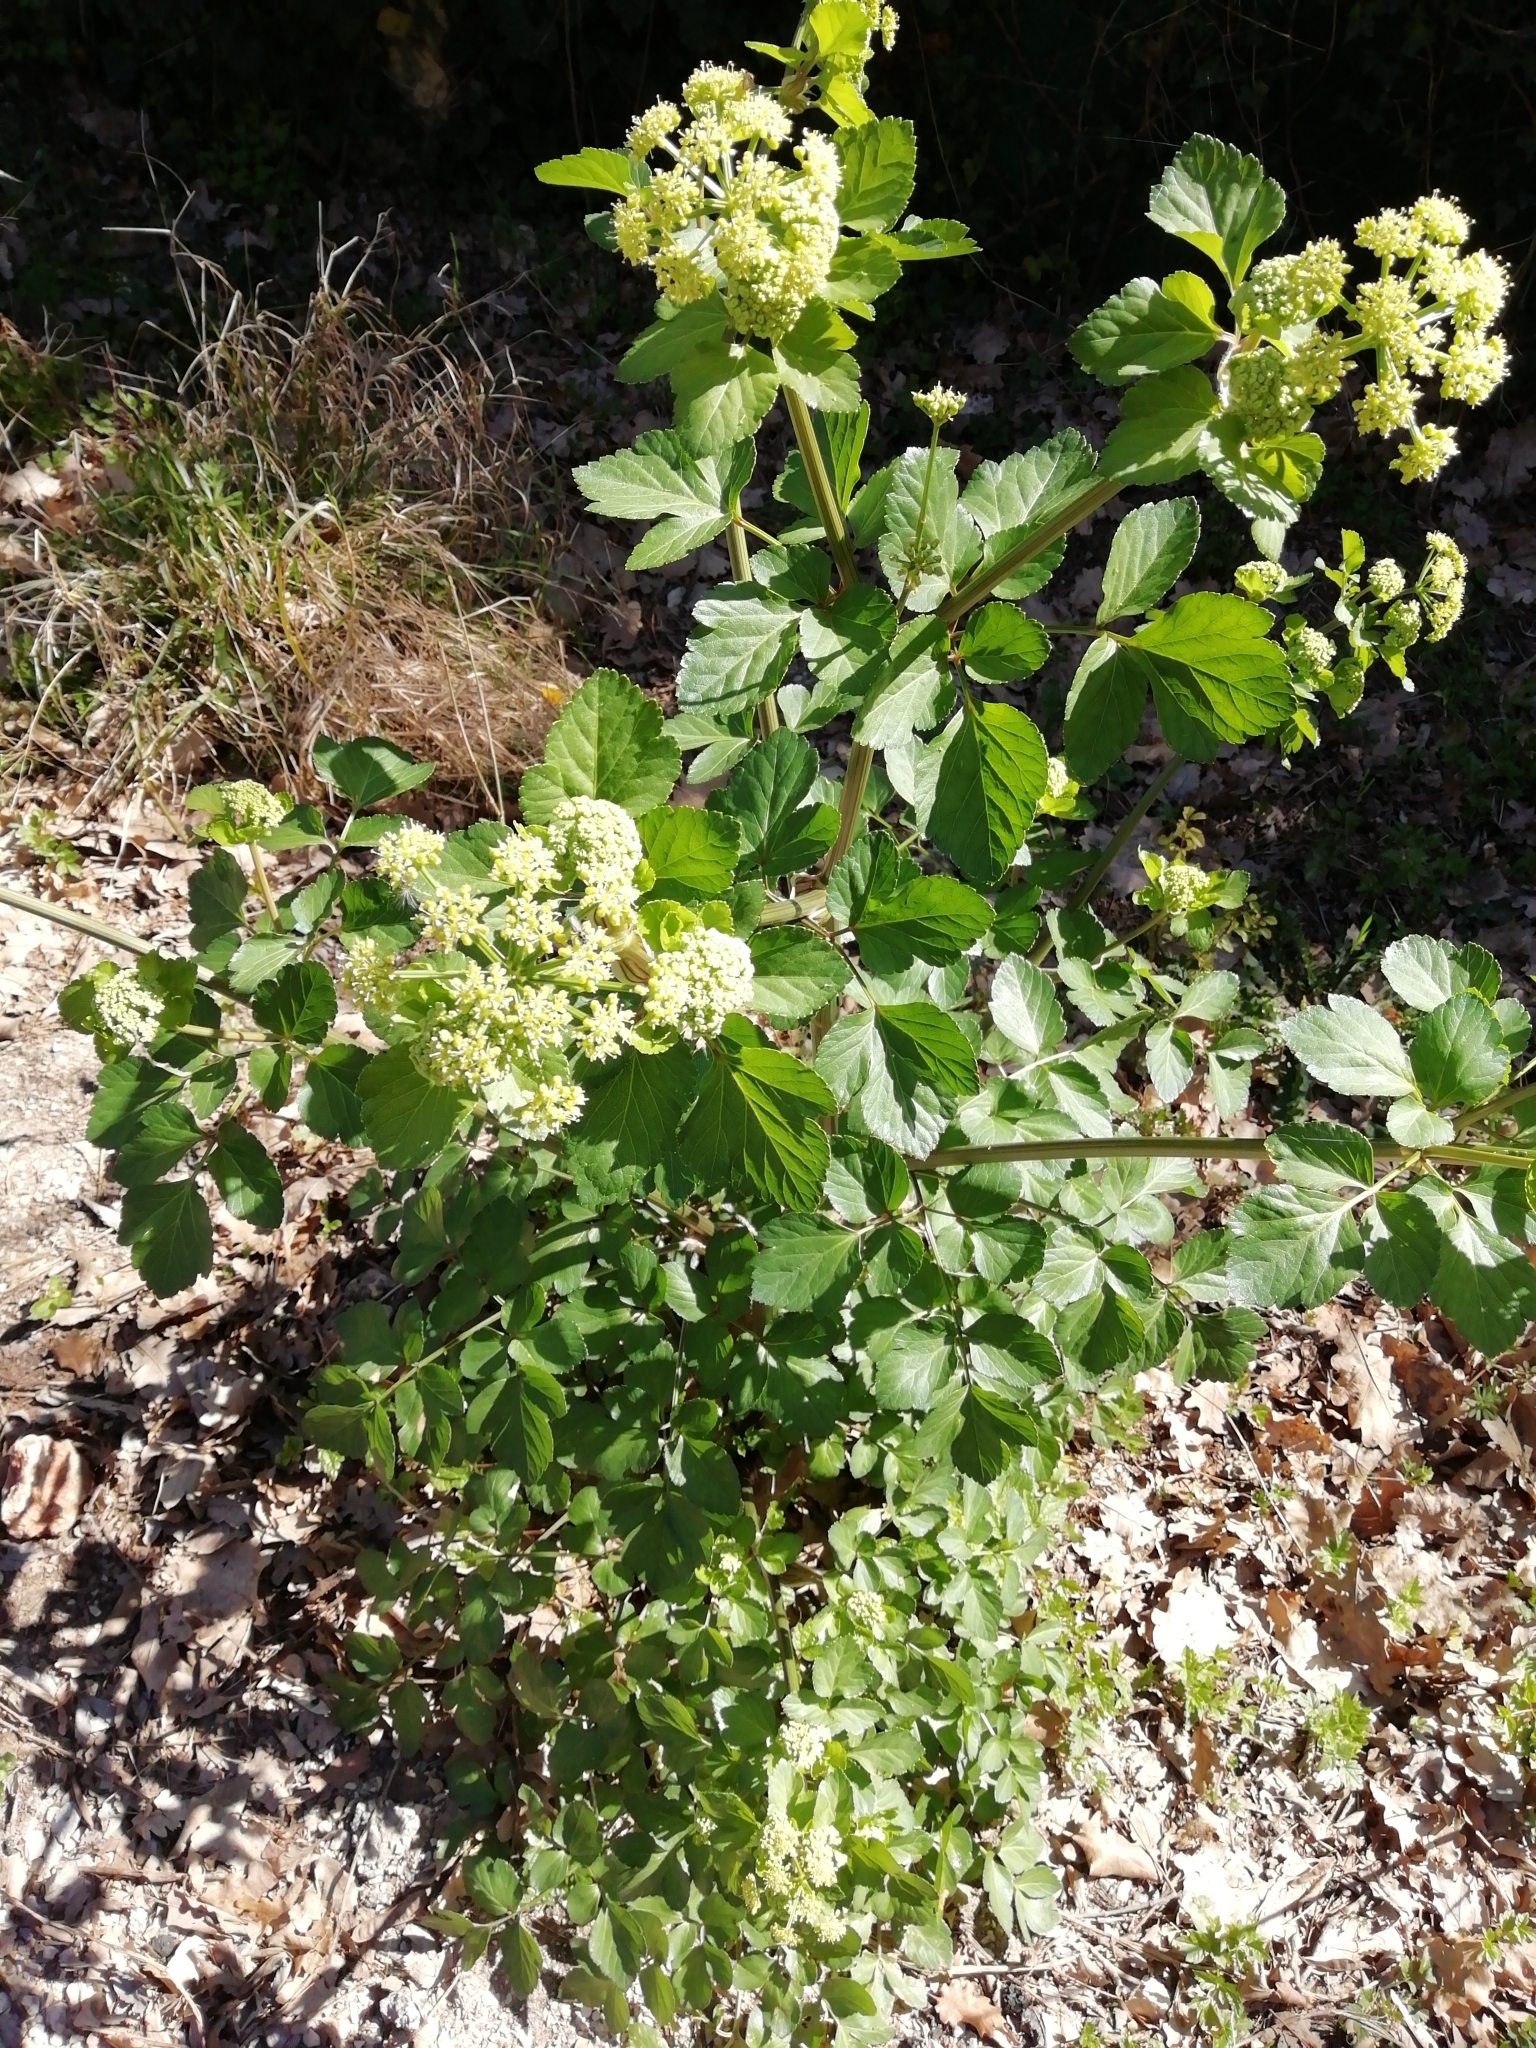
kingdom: Plantae
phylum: Tracheophyta
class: Magnoliopsida
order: Apiales
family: Apiaceae
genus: Smyrnium
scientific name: Smyrnium olusatrum
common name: Alexanders
